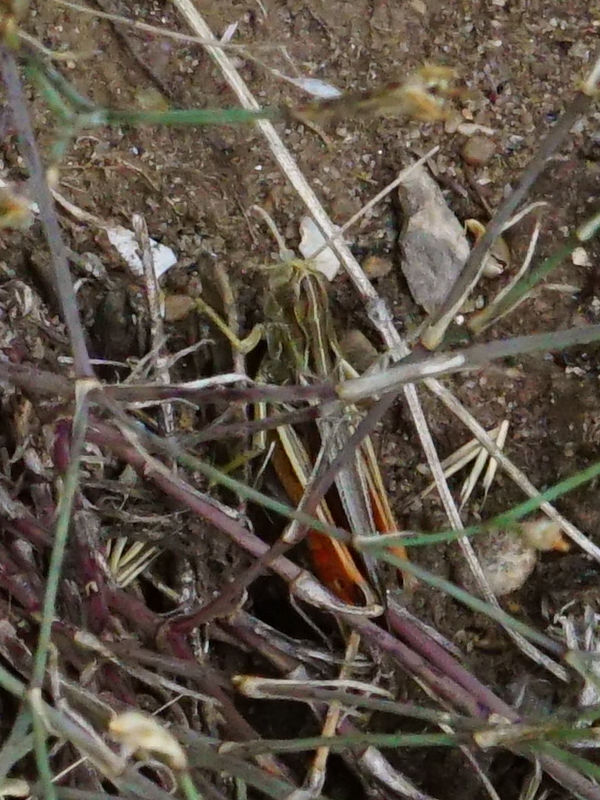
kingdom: Animalia
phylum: Arthropoda
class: Insecta
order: Orthoptera
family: Acrididae
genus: Stenobothrus
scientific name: Stenobothrus lineatus
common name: Stripe-winged grasshopper
